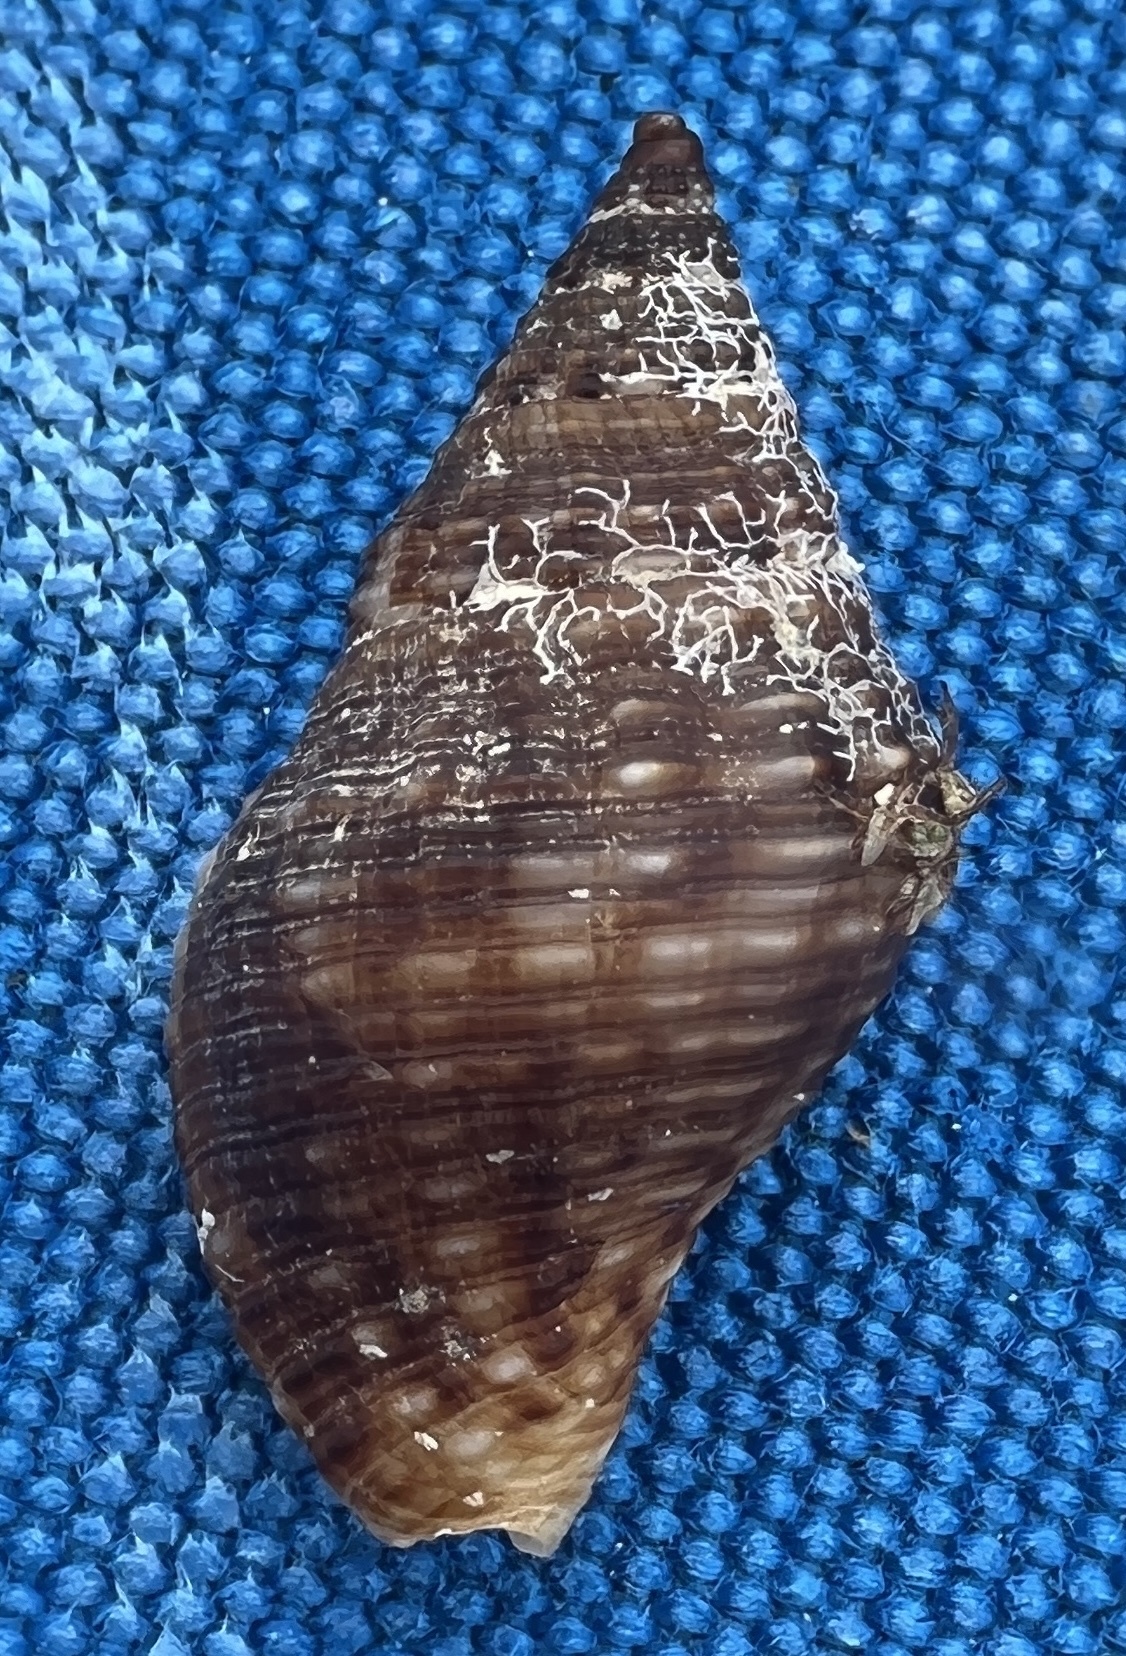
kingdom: Animalia
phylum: Mollusca
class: Gastropoda
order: Neogastropoda
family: Pisaniidae
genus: Gemophos
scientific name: Gemophos tinctus
